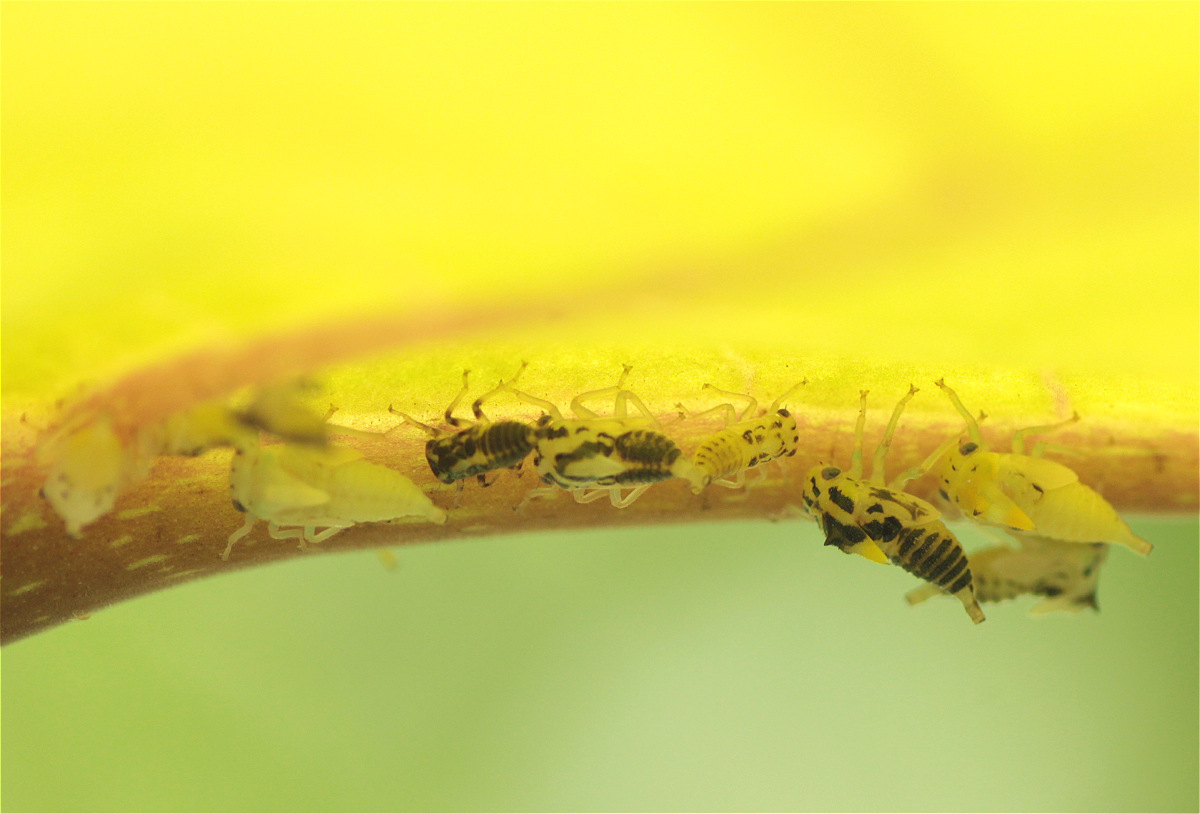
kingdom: Animalia
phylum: Arthropoda
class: Insecta
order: Hemiptera
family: Membracidae
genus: Ennya
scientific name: Ennya chrysura
